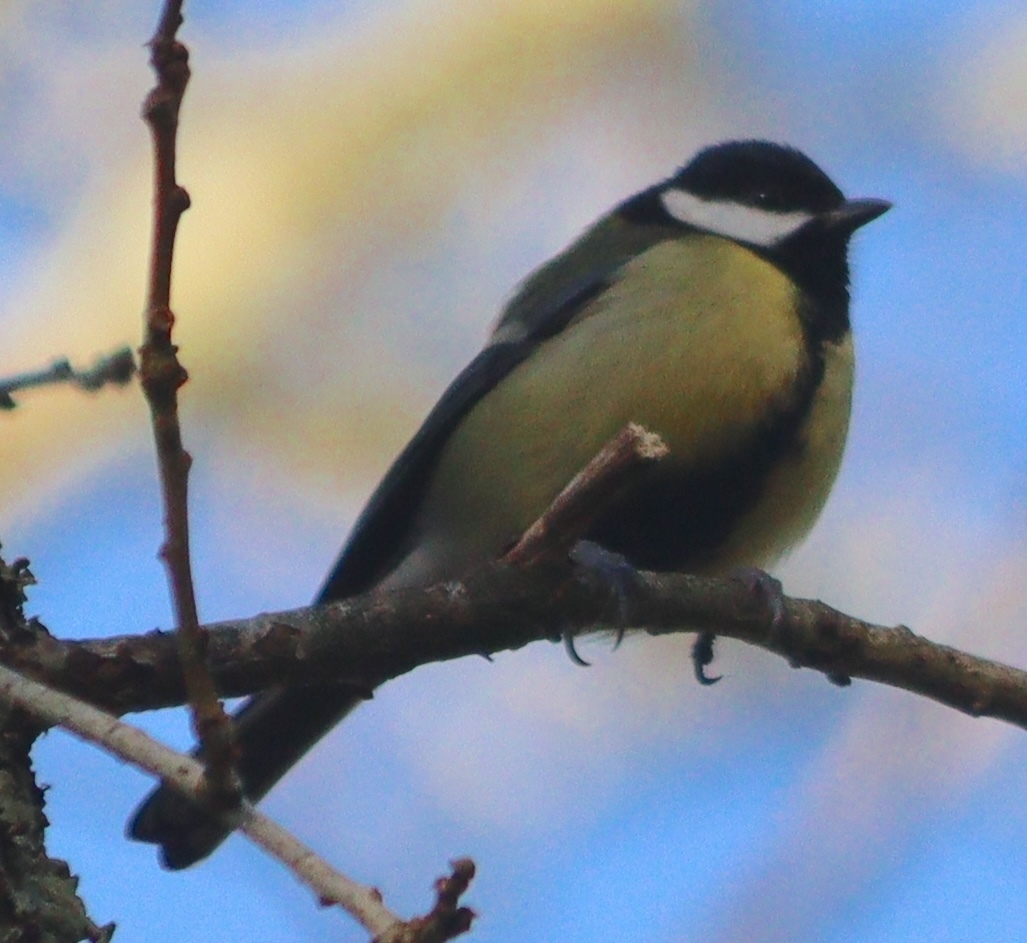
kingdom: Animalia
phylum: Chordata
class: Aves
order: Passeriformes
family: Paridae
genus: Parus
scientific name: Parus major
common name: Great tit
